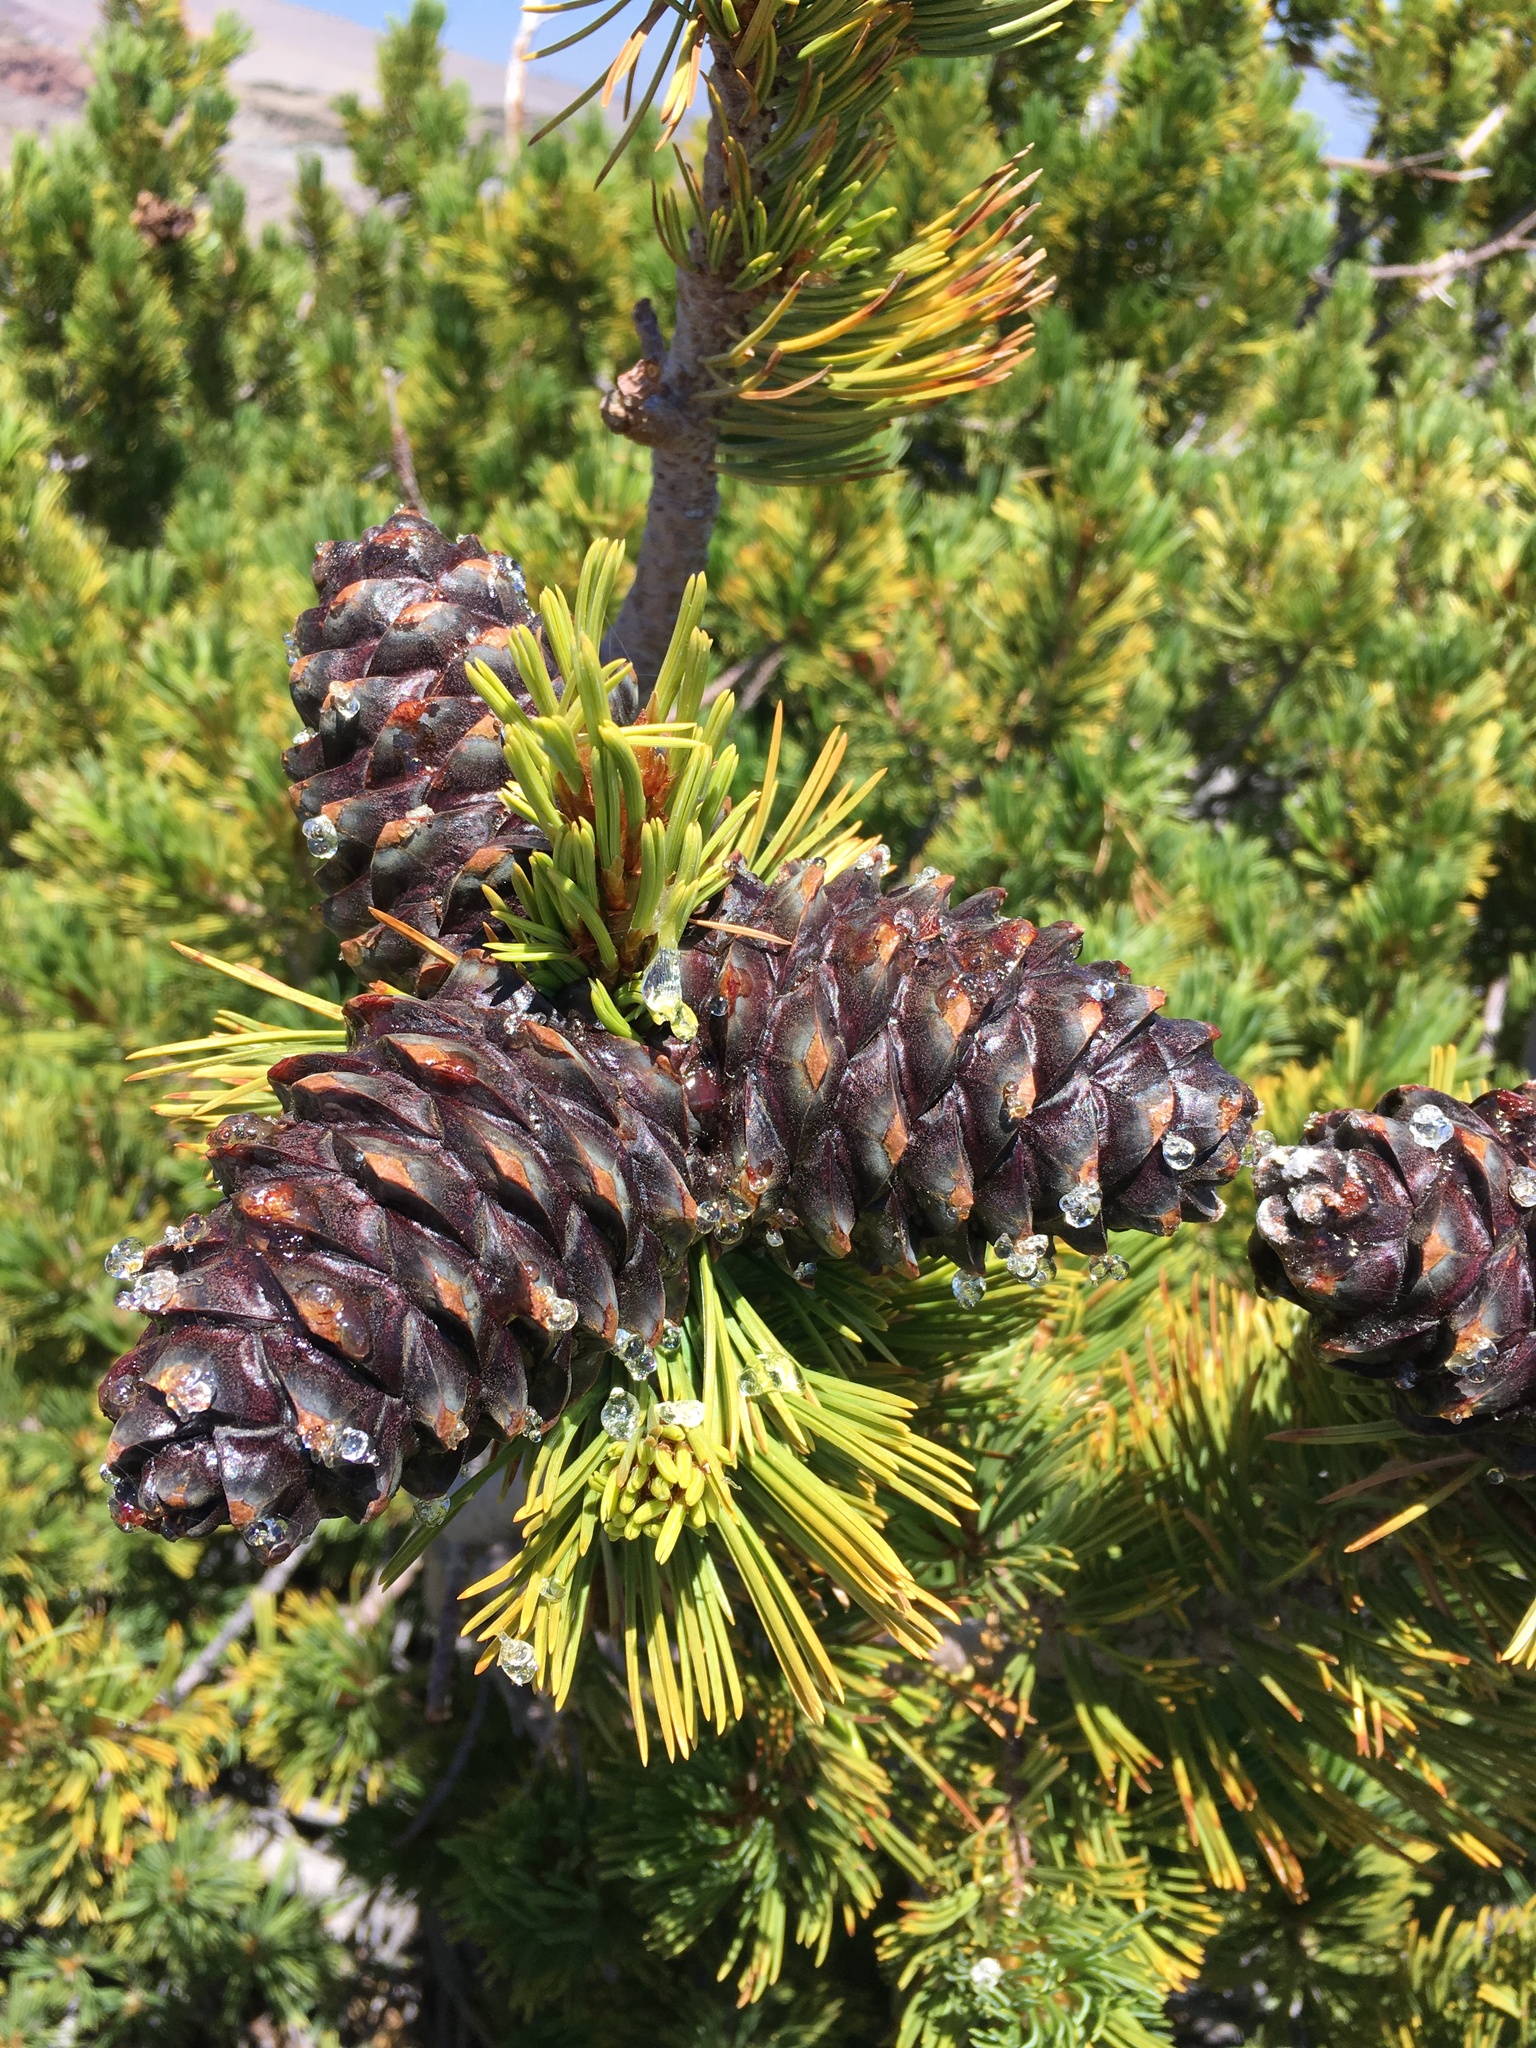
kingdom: Plantae
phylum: Tracheophyta
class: Pinopsida
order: Pinales
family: Pinaceae
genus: Pinus
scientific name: Pinus albicaulis
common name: Whitebark pine
